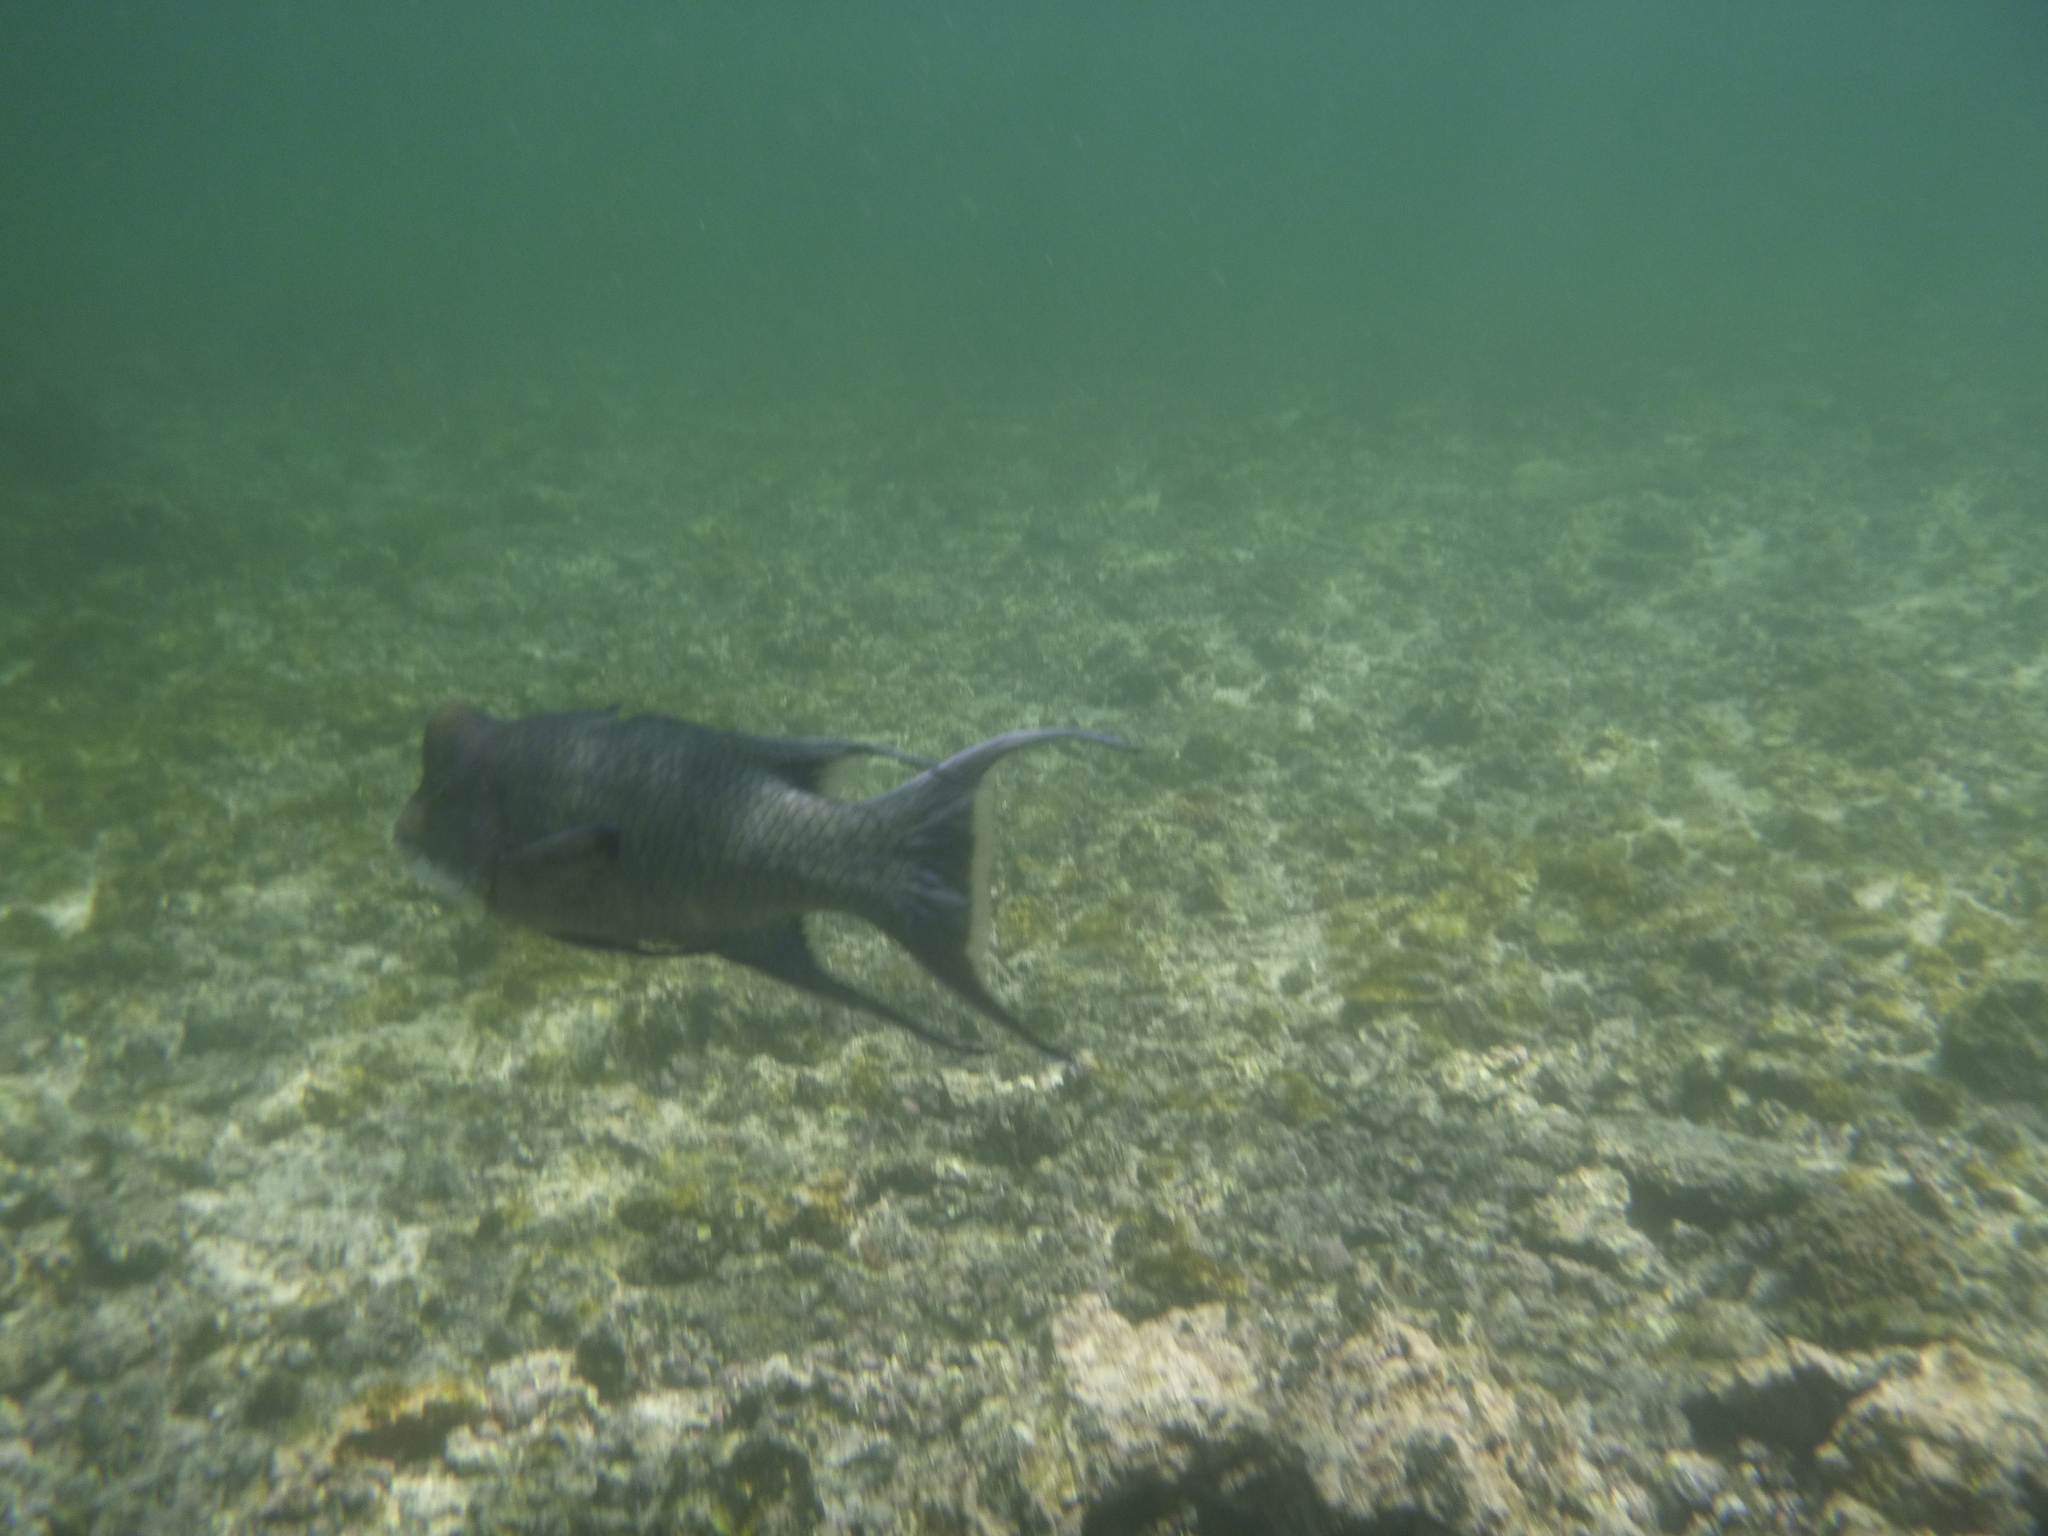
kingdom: Animalia
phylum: Chordata
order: Perciformes
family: Labridae
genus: Bodianus
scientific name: Bodianus diplotaenia
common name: Mexican hogfish
